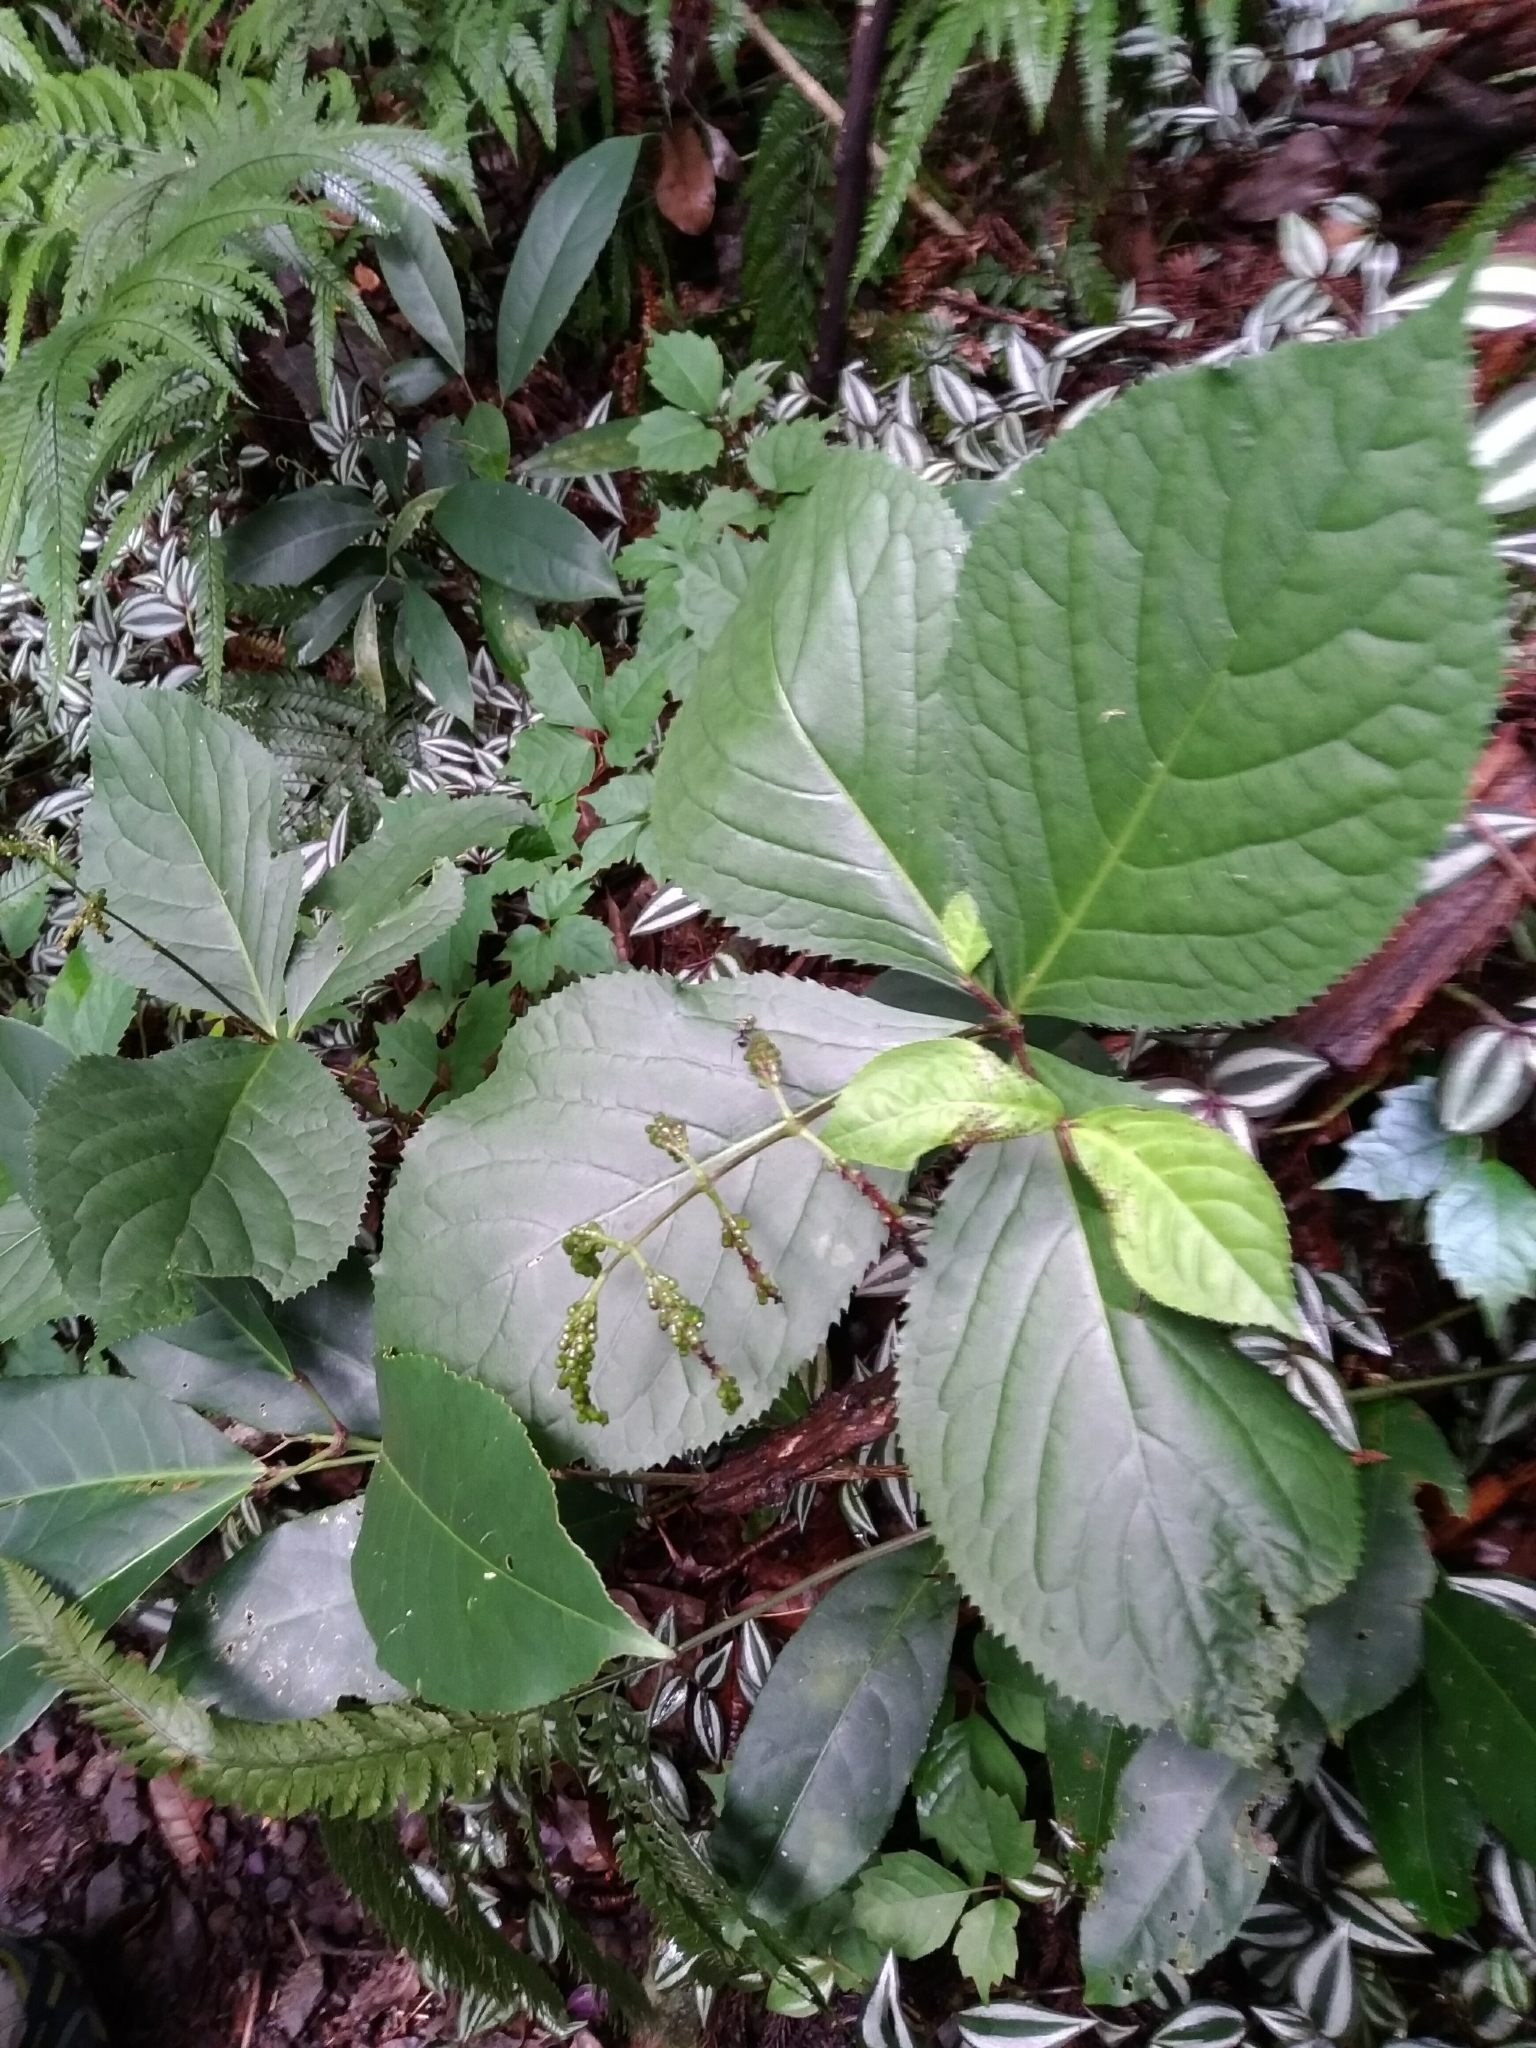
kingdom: Plantae
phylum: Tracheophyta
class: Magnoliopsida
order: Chloranthales
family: Chloranthaceae
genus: Chloranthus
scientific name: Chloranthus oldhamii
